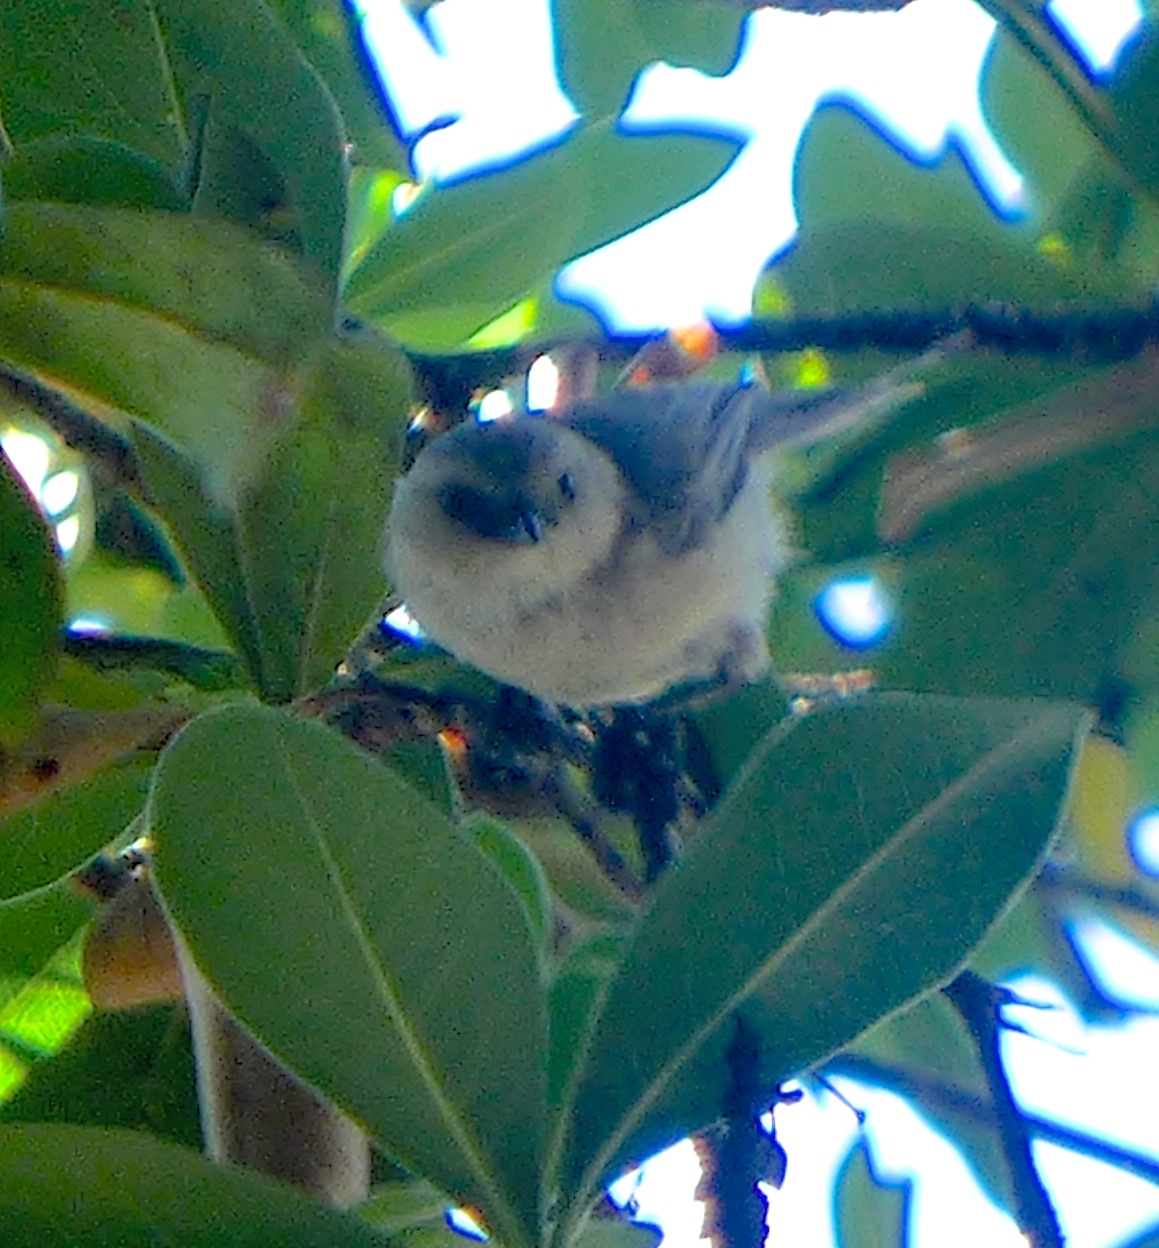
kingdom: Animalia
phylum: Chordata
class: Aves
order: Passeriformes
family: Aegithalidae
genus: Psaltriparus
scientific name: Psaltriparus minimus
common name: American bushtit
